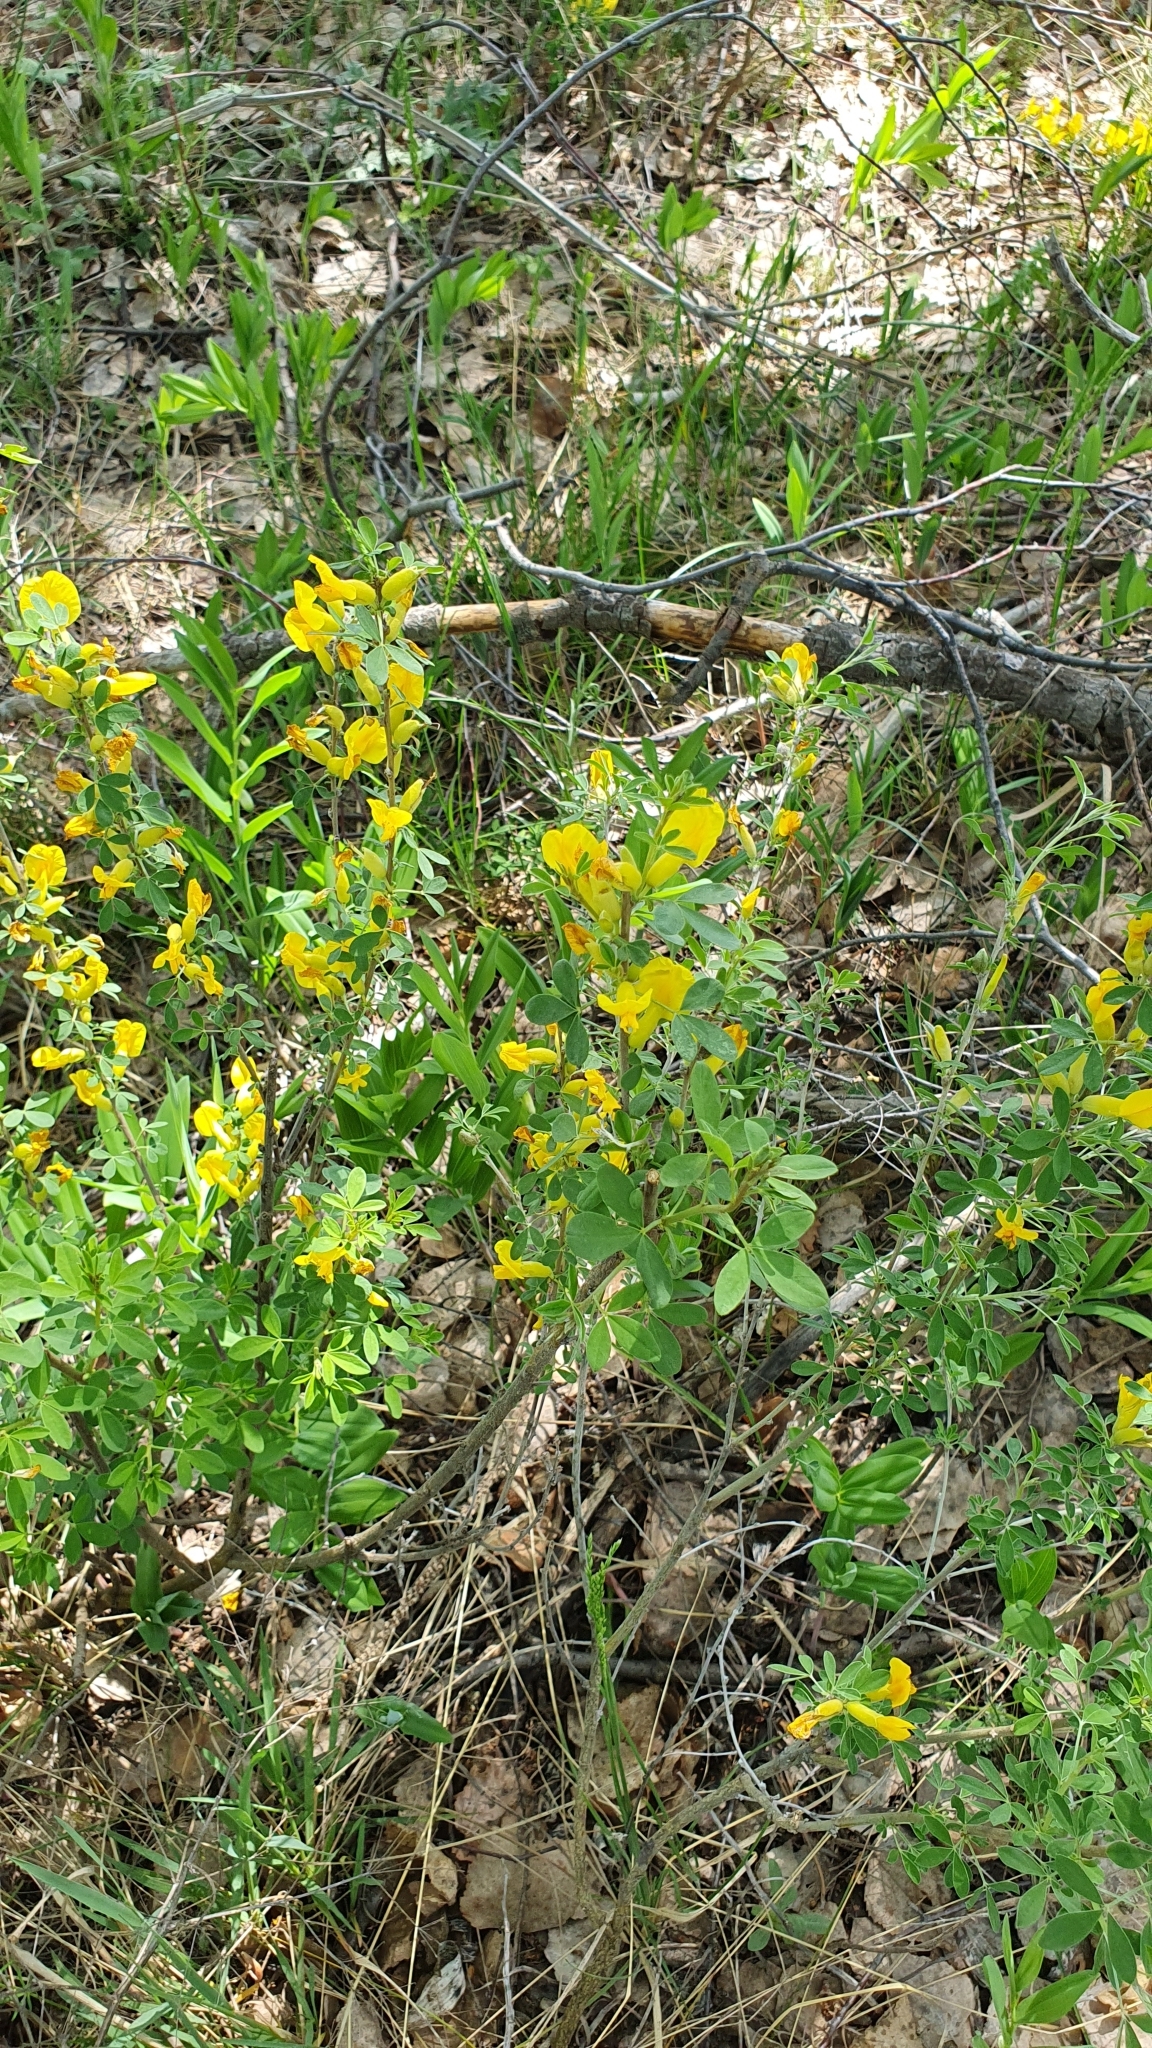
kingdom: Plantae
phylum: Tracheophyta
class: Magnoliopsida
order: Fabales
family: Fabaceae
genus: Chamaecytisus
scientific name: Chamaecytisus ruthenicus
